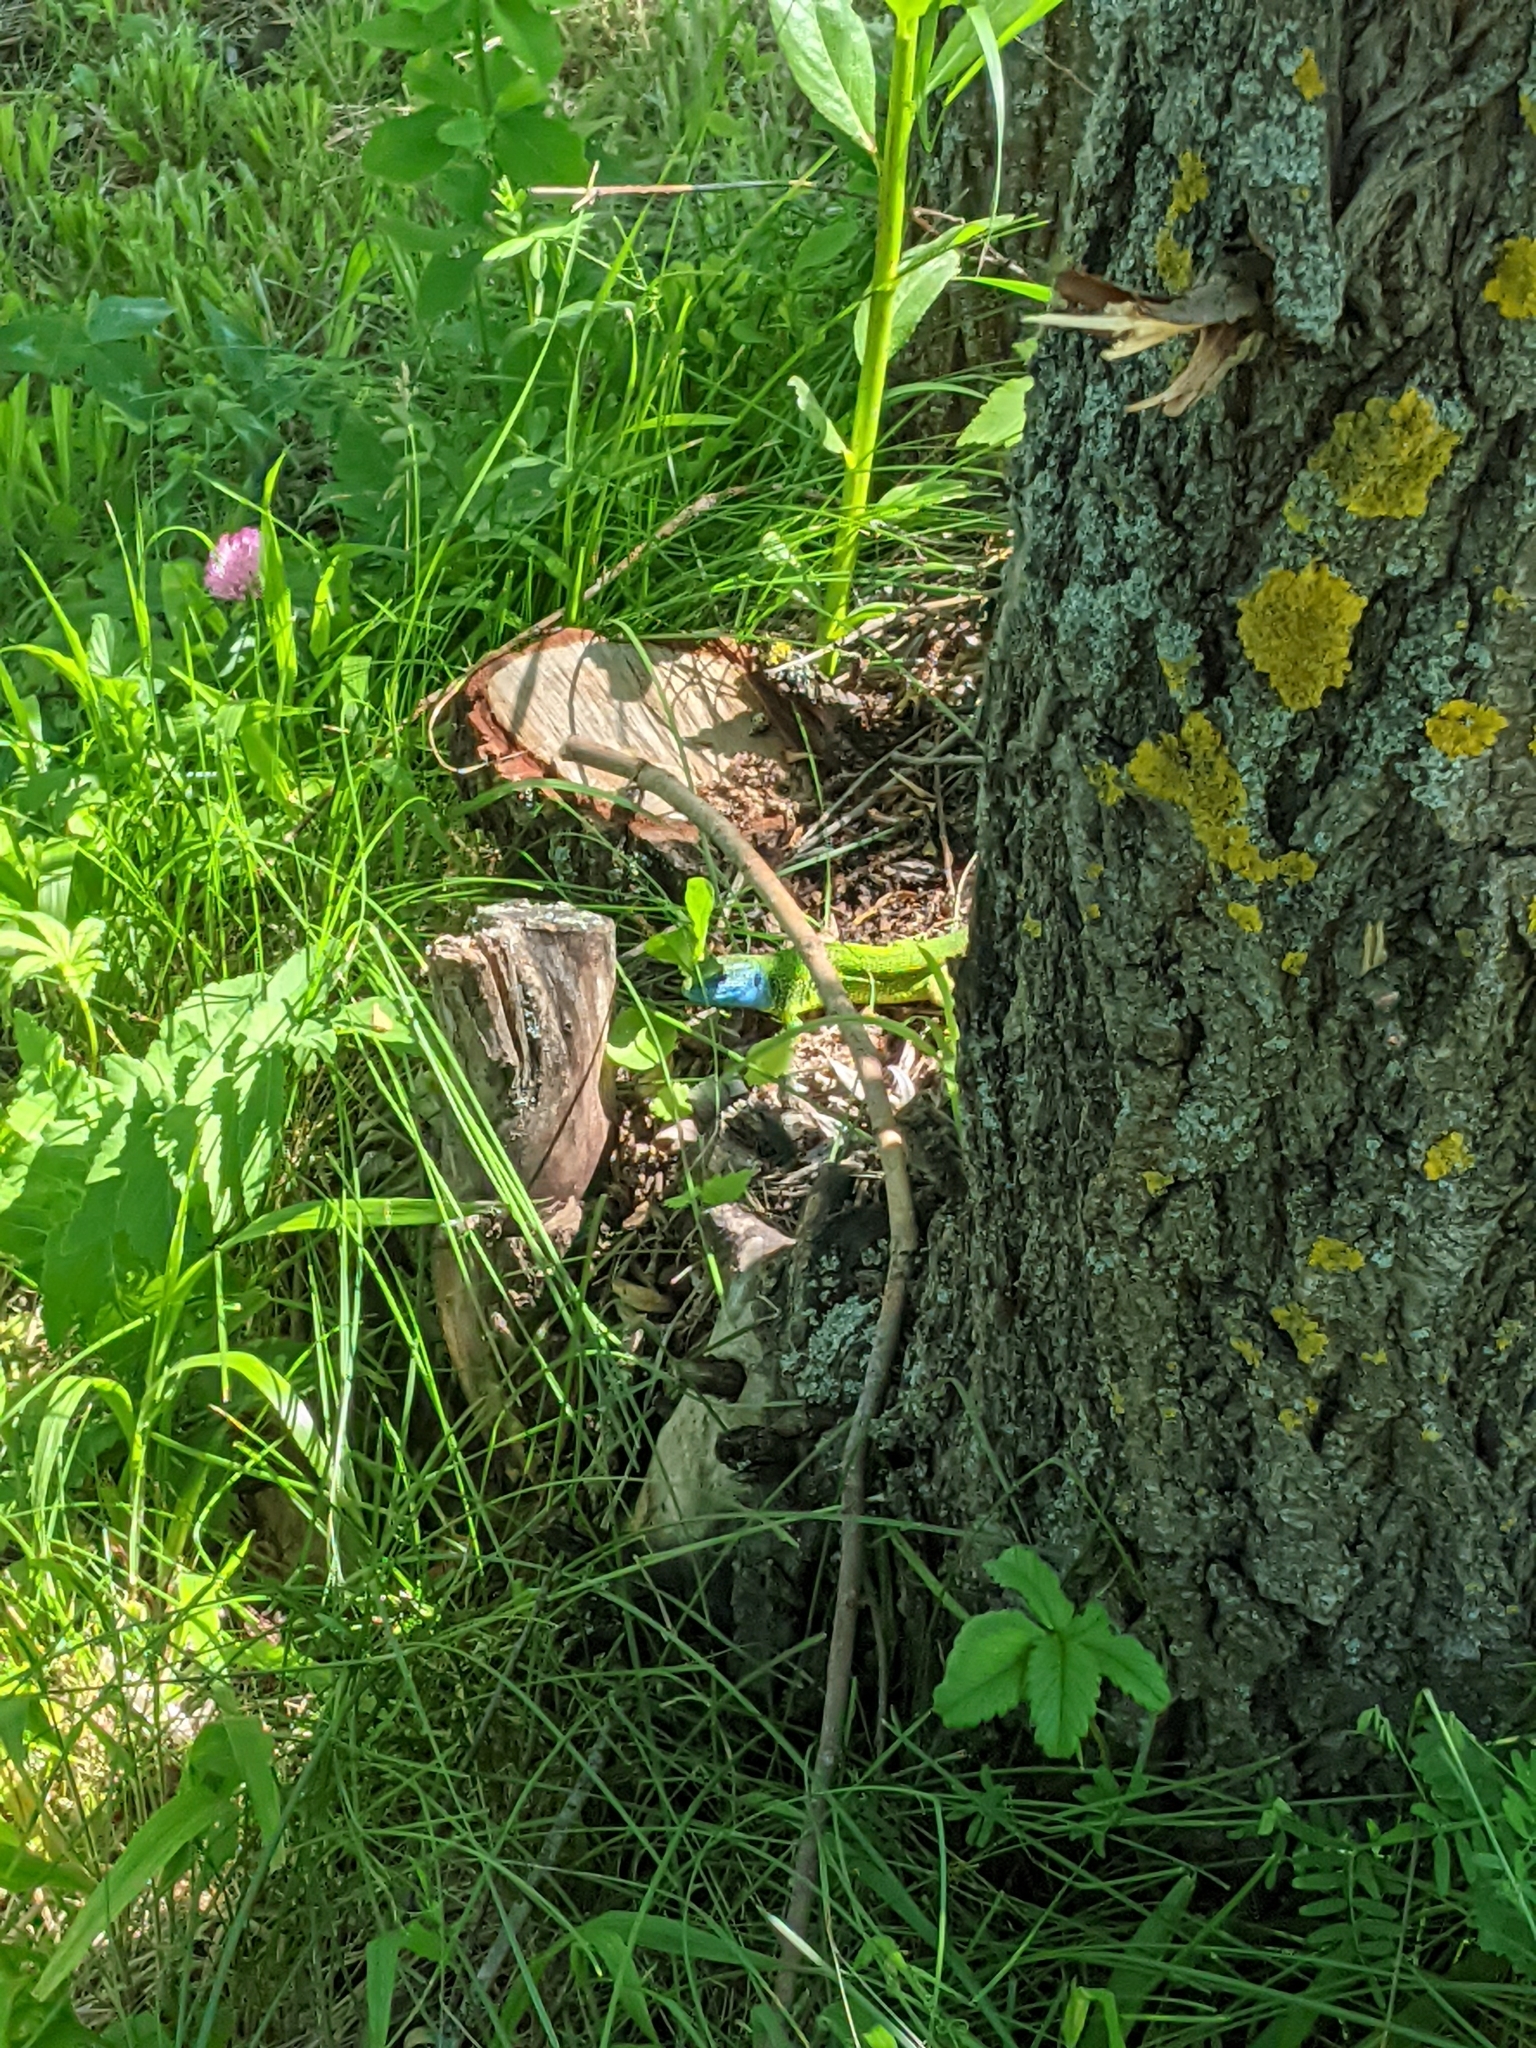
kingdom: Animalia
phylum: Chordata
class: Squamata
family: Lacertidae
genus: Lacerta
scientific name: Lacerta viridis
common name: European green lizard
